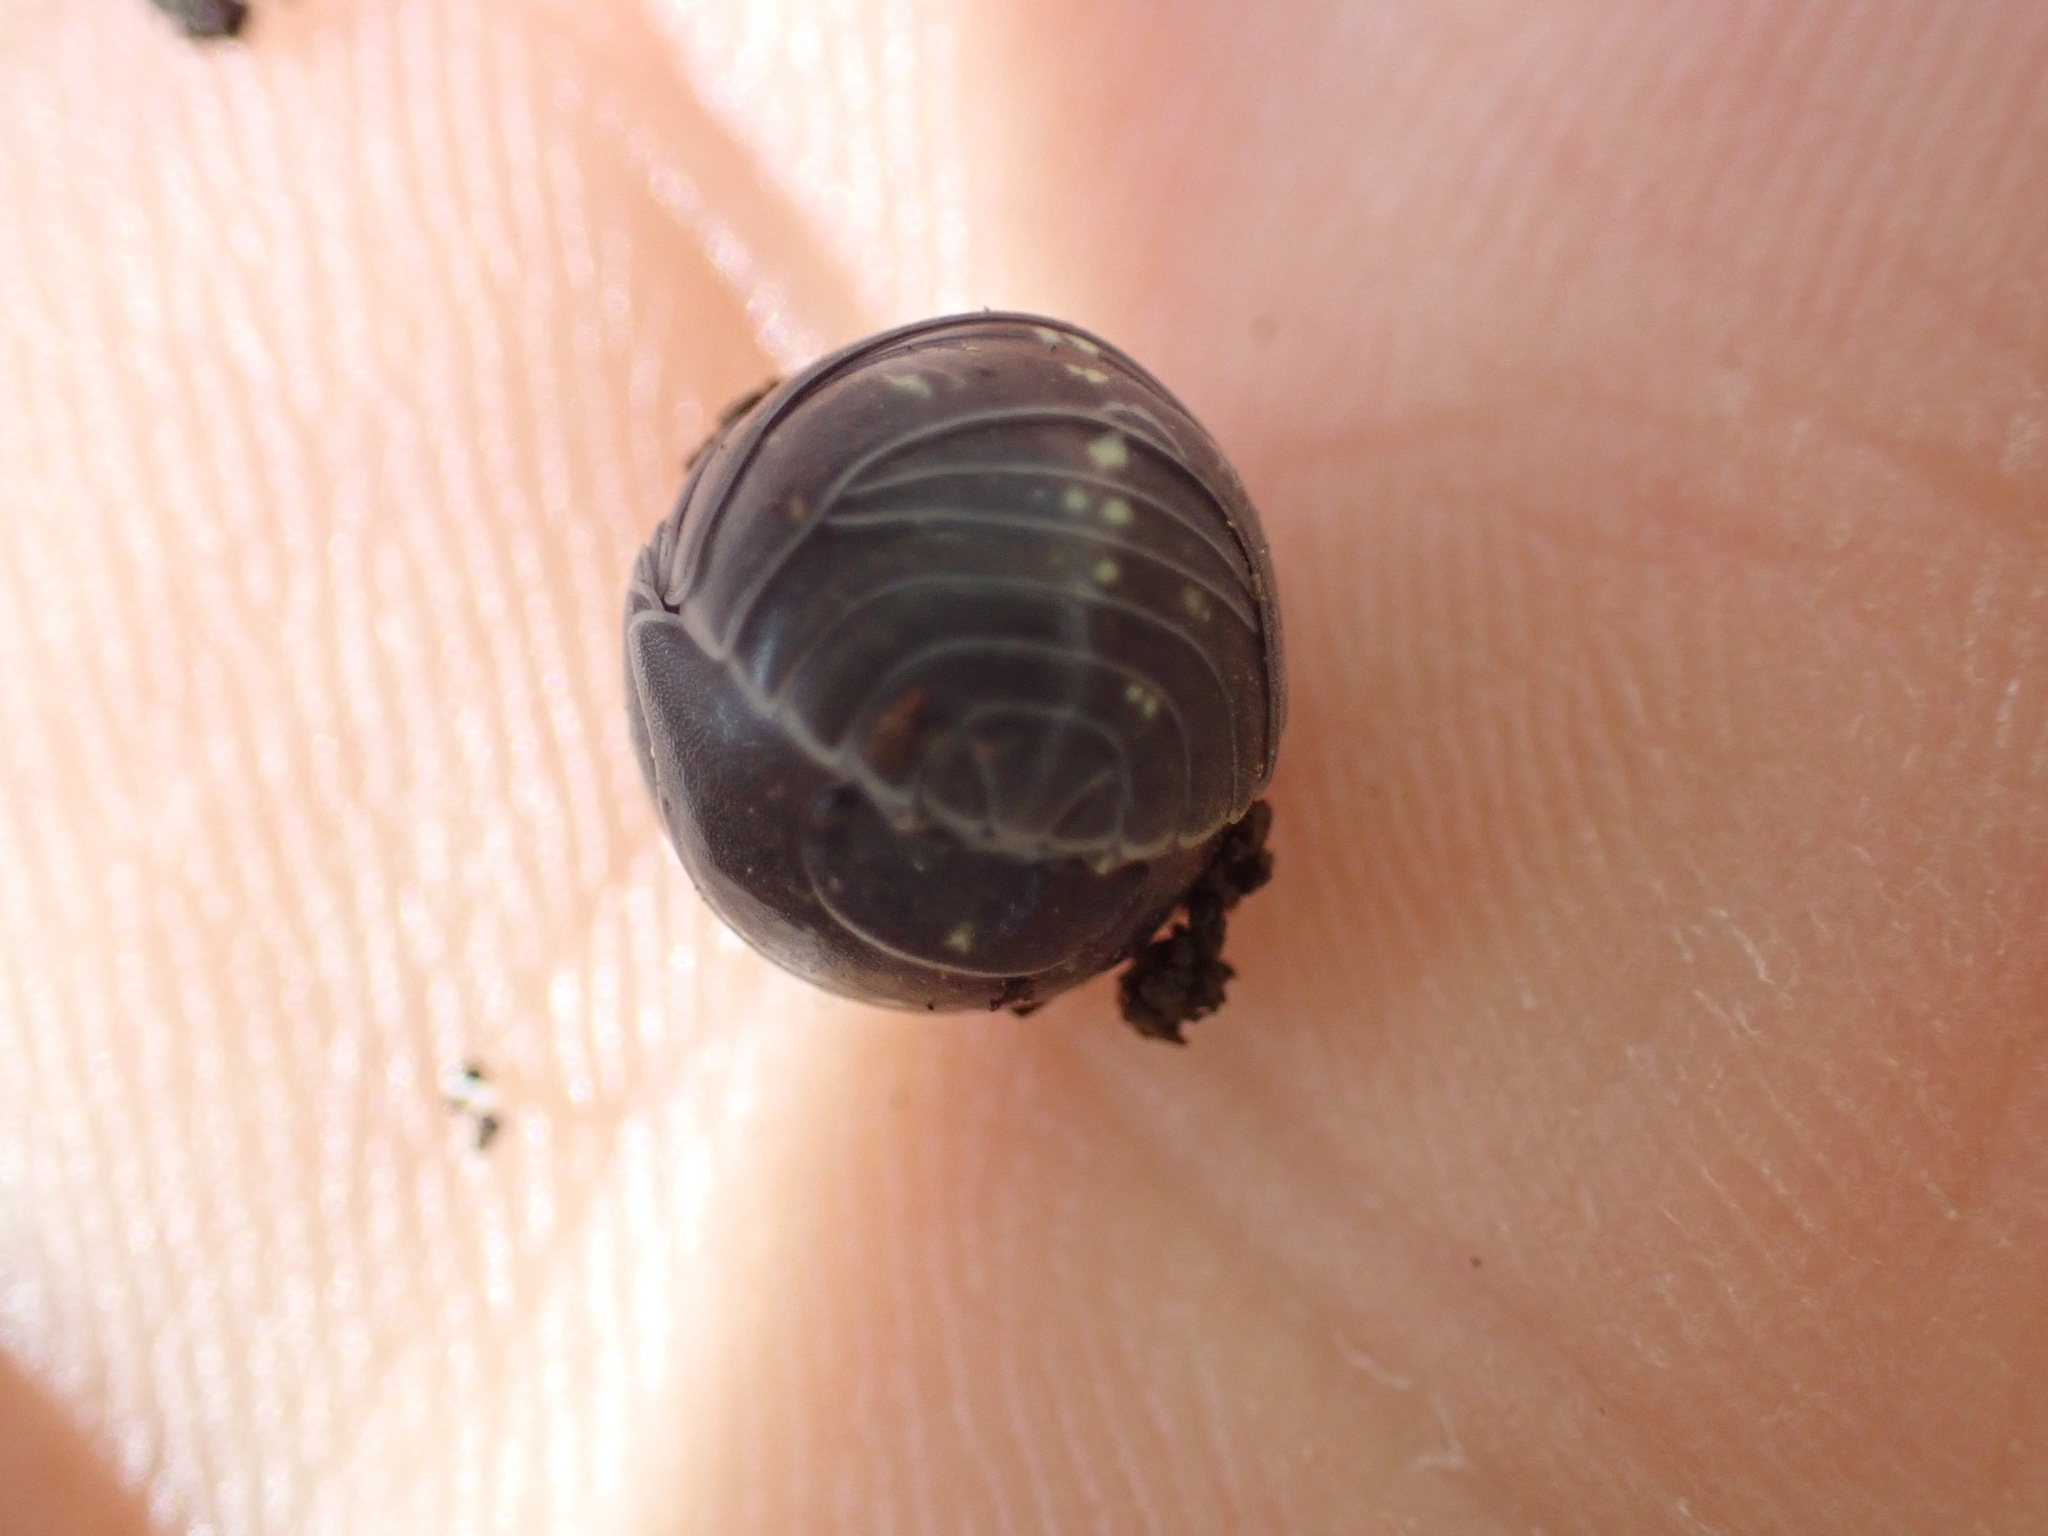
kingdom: Animalia
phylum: Arthropoda
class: Malacostraca
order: Isopoda
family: Armadillidiidae
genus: Armadillidium
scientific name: Armadillidium vulgare
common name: Common pill woodlouse
